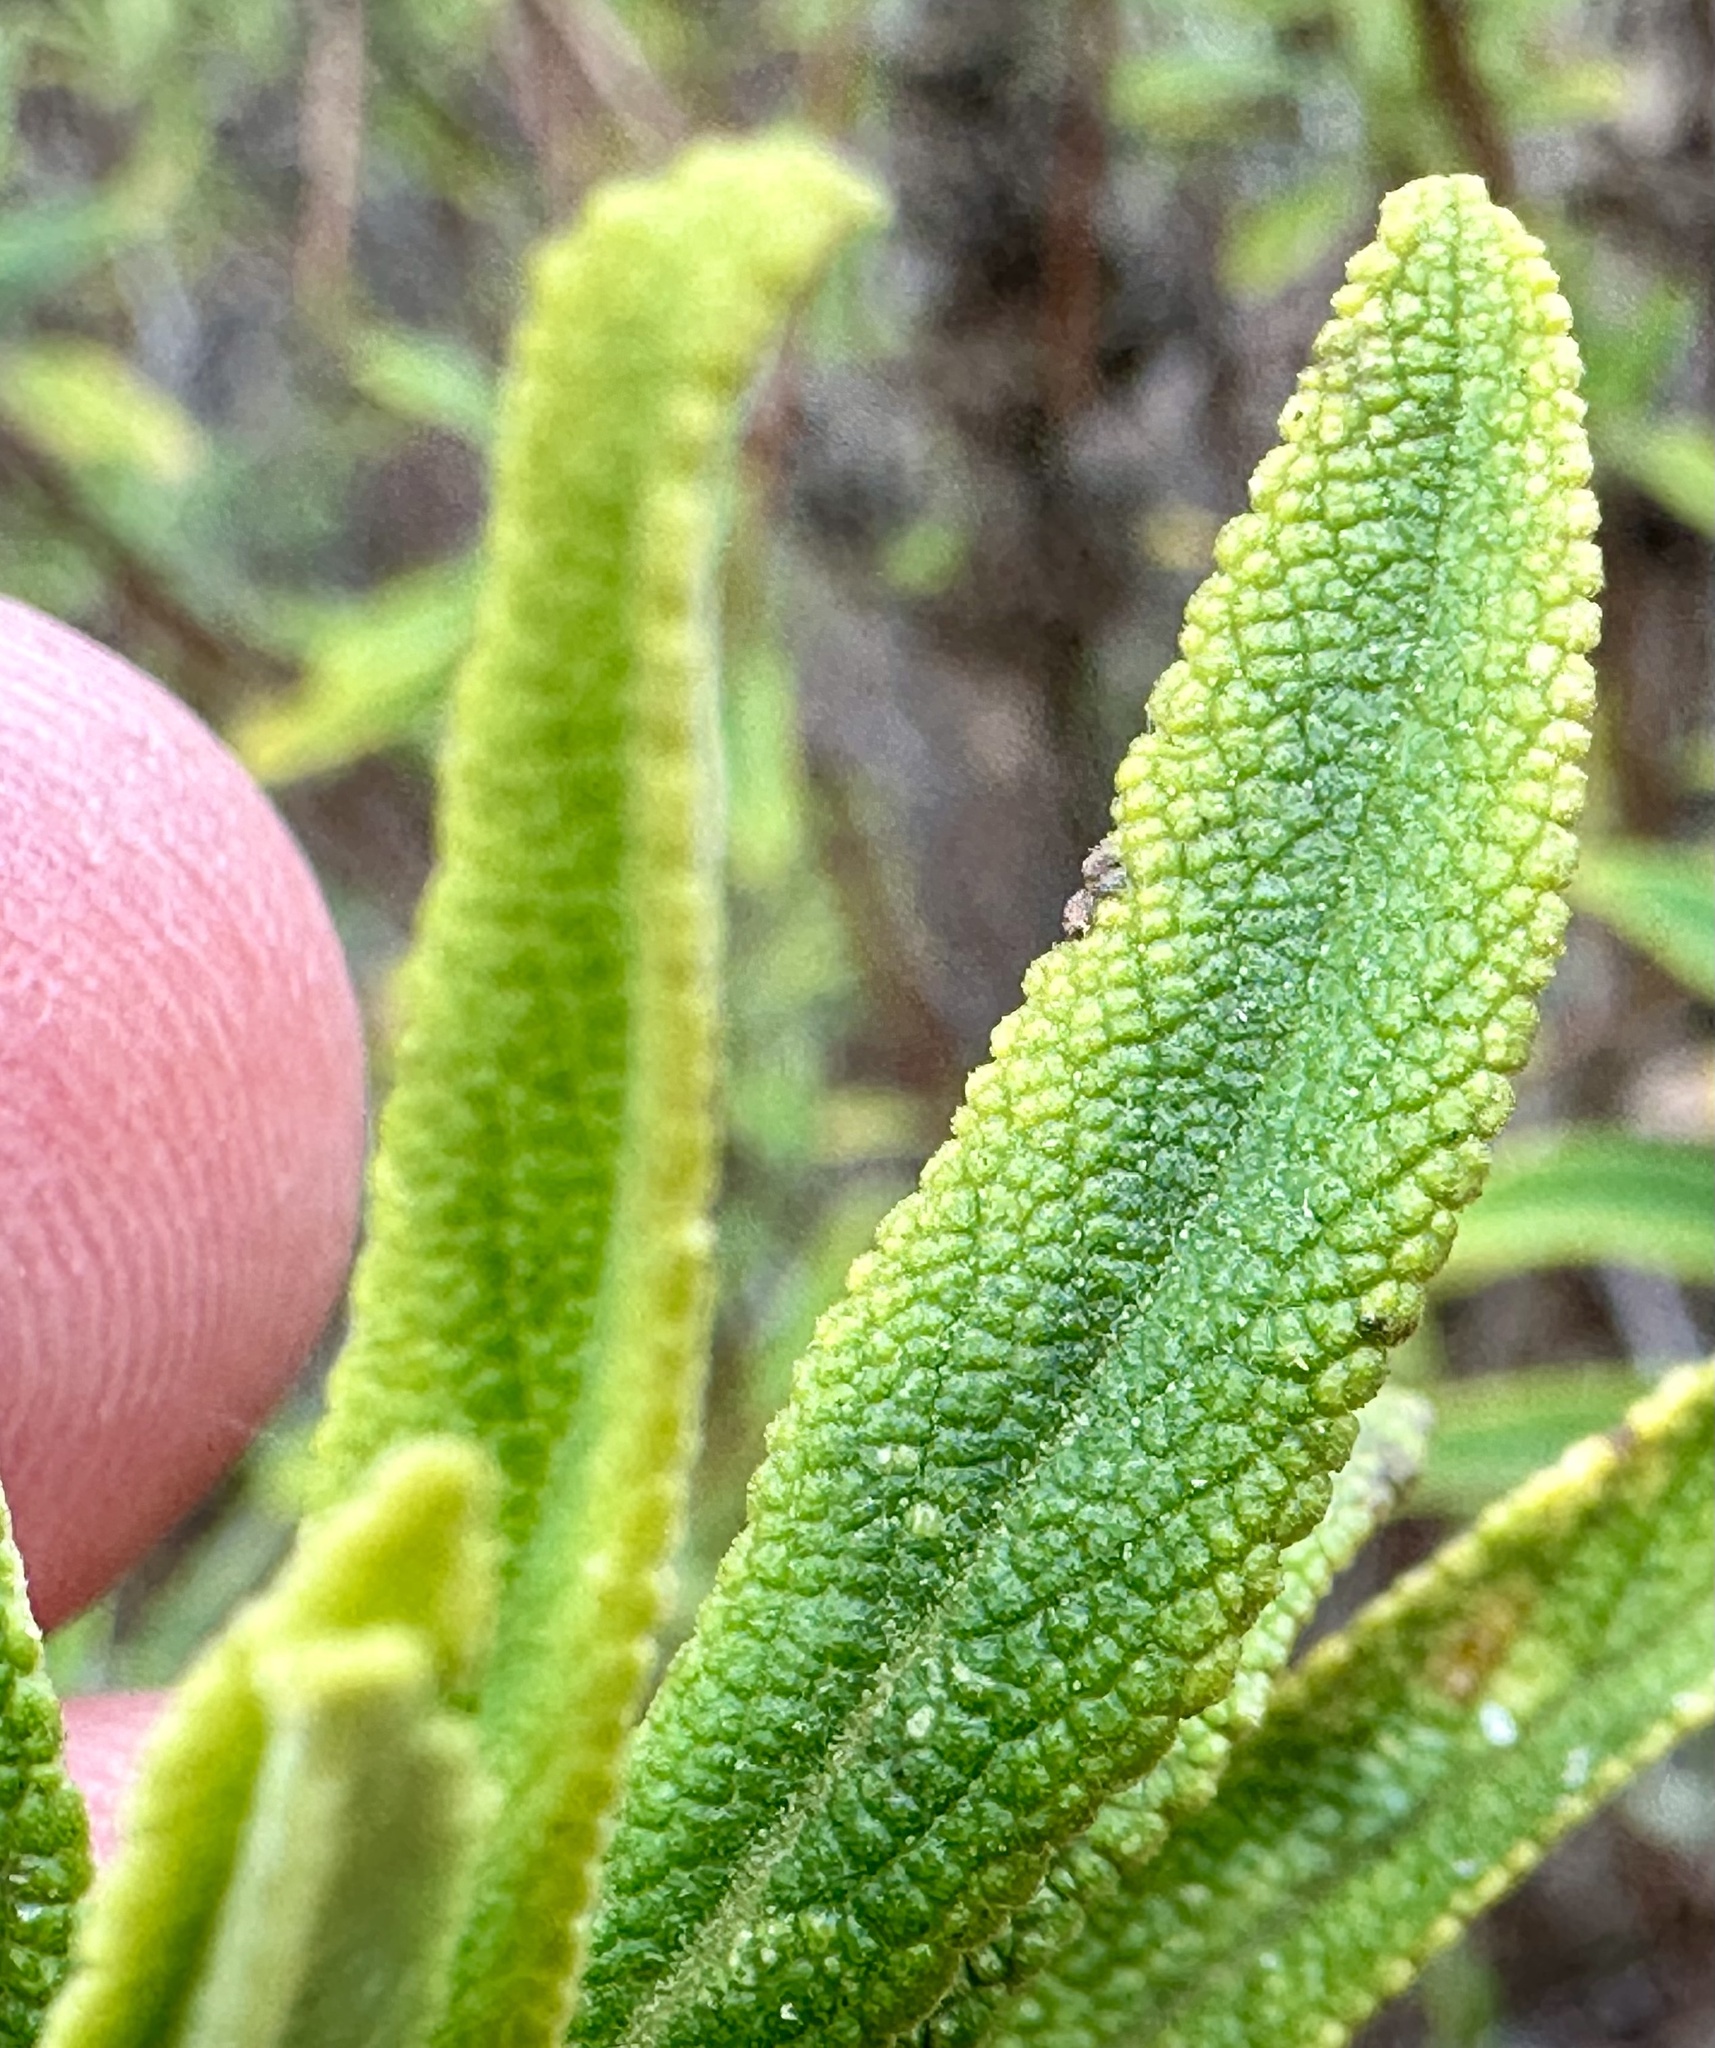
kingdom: Plantae
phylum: Tracheophyta
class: Magnoliopsida
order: Lamiales
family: Lamiaceae
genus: Salvia
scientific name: Salvia mellifera
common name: Black sage
